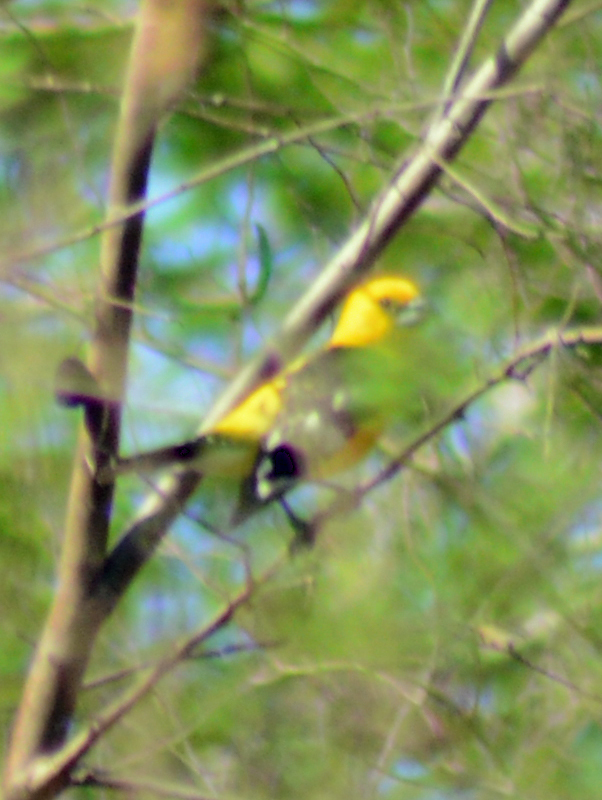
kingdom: Animalia
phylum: Chordata
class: Aves
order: Passeriformes
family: Cardinalidae
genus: Pheucticus
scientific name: Pheucticus chrysopeplus
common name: Yellow grosbeak
